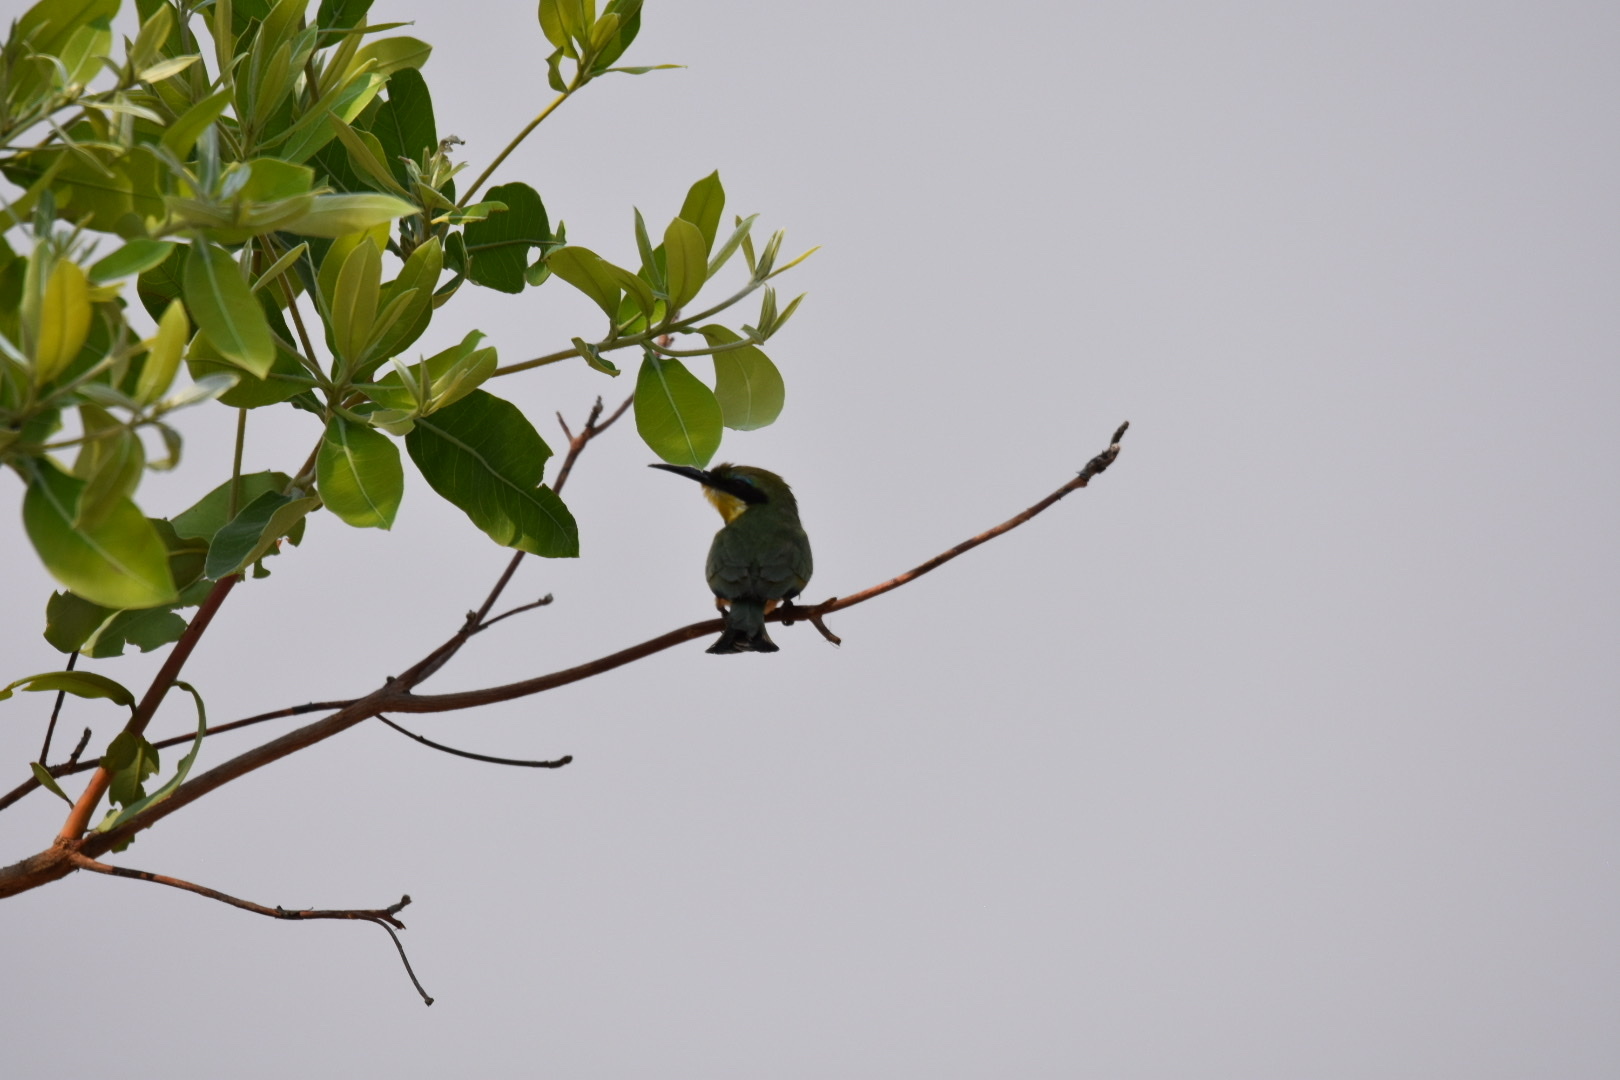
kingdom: Animalia
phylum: Chordata
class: Aves
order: Coraciiformes
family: Meropidae
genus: Merops
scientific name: Merops pusillus
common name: Little bee-eater
